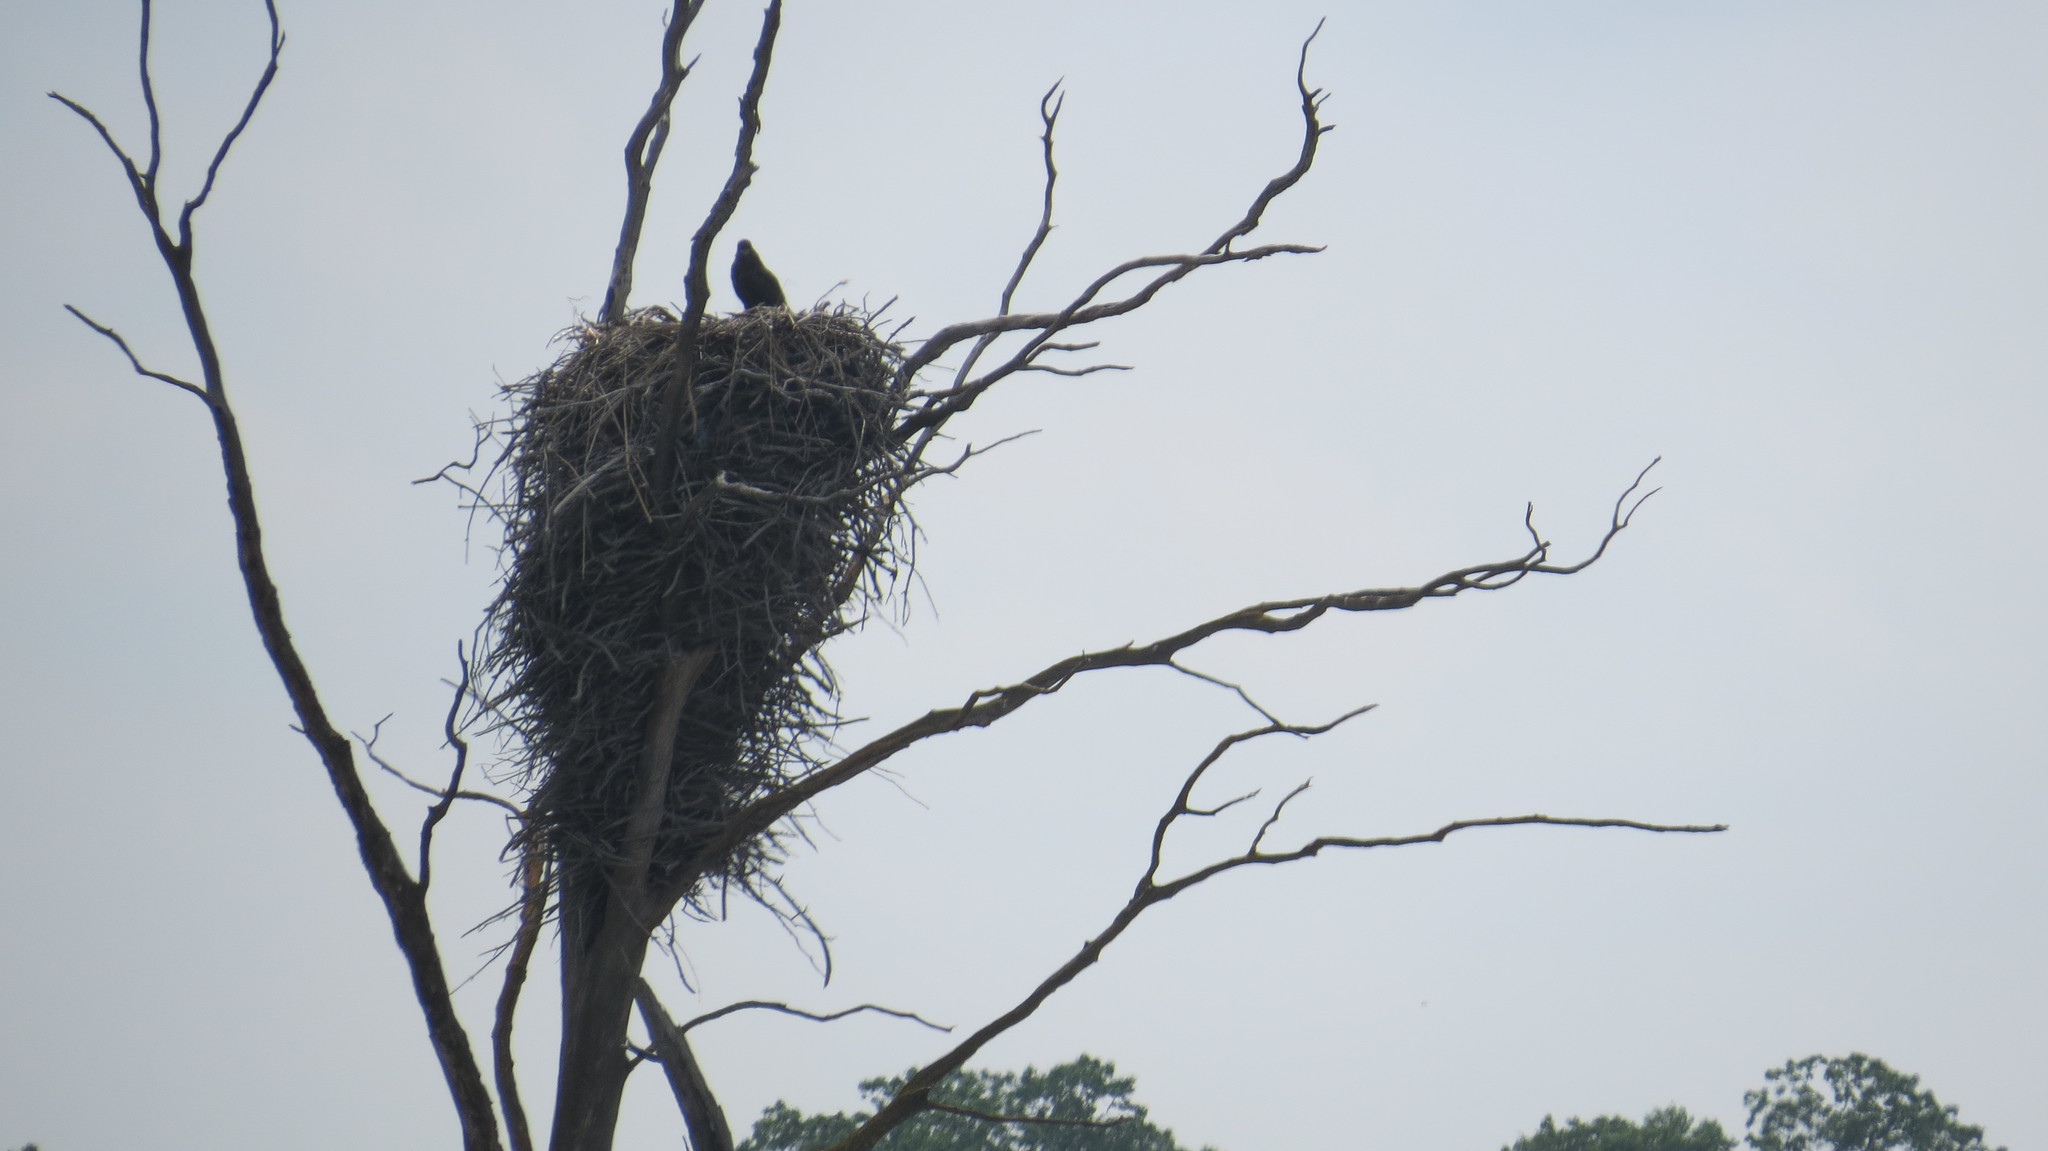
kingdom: Animalia
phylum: Chordata
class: Aves
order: Accipitriformes
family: Accipitridae
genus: Haliaeetus
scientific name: Haliaeetus leucocephalus
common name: Bald eagle
